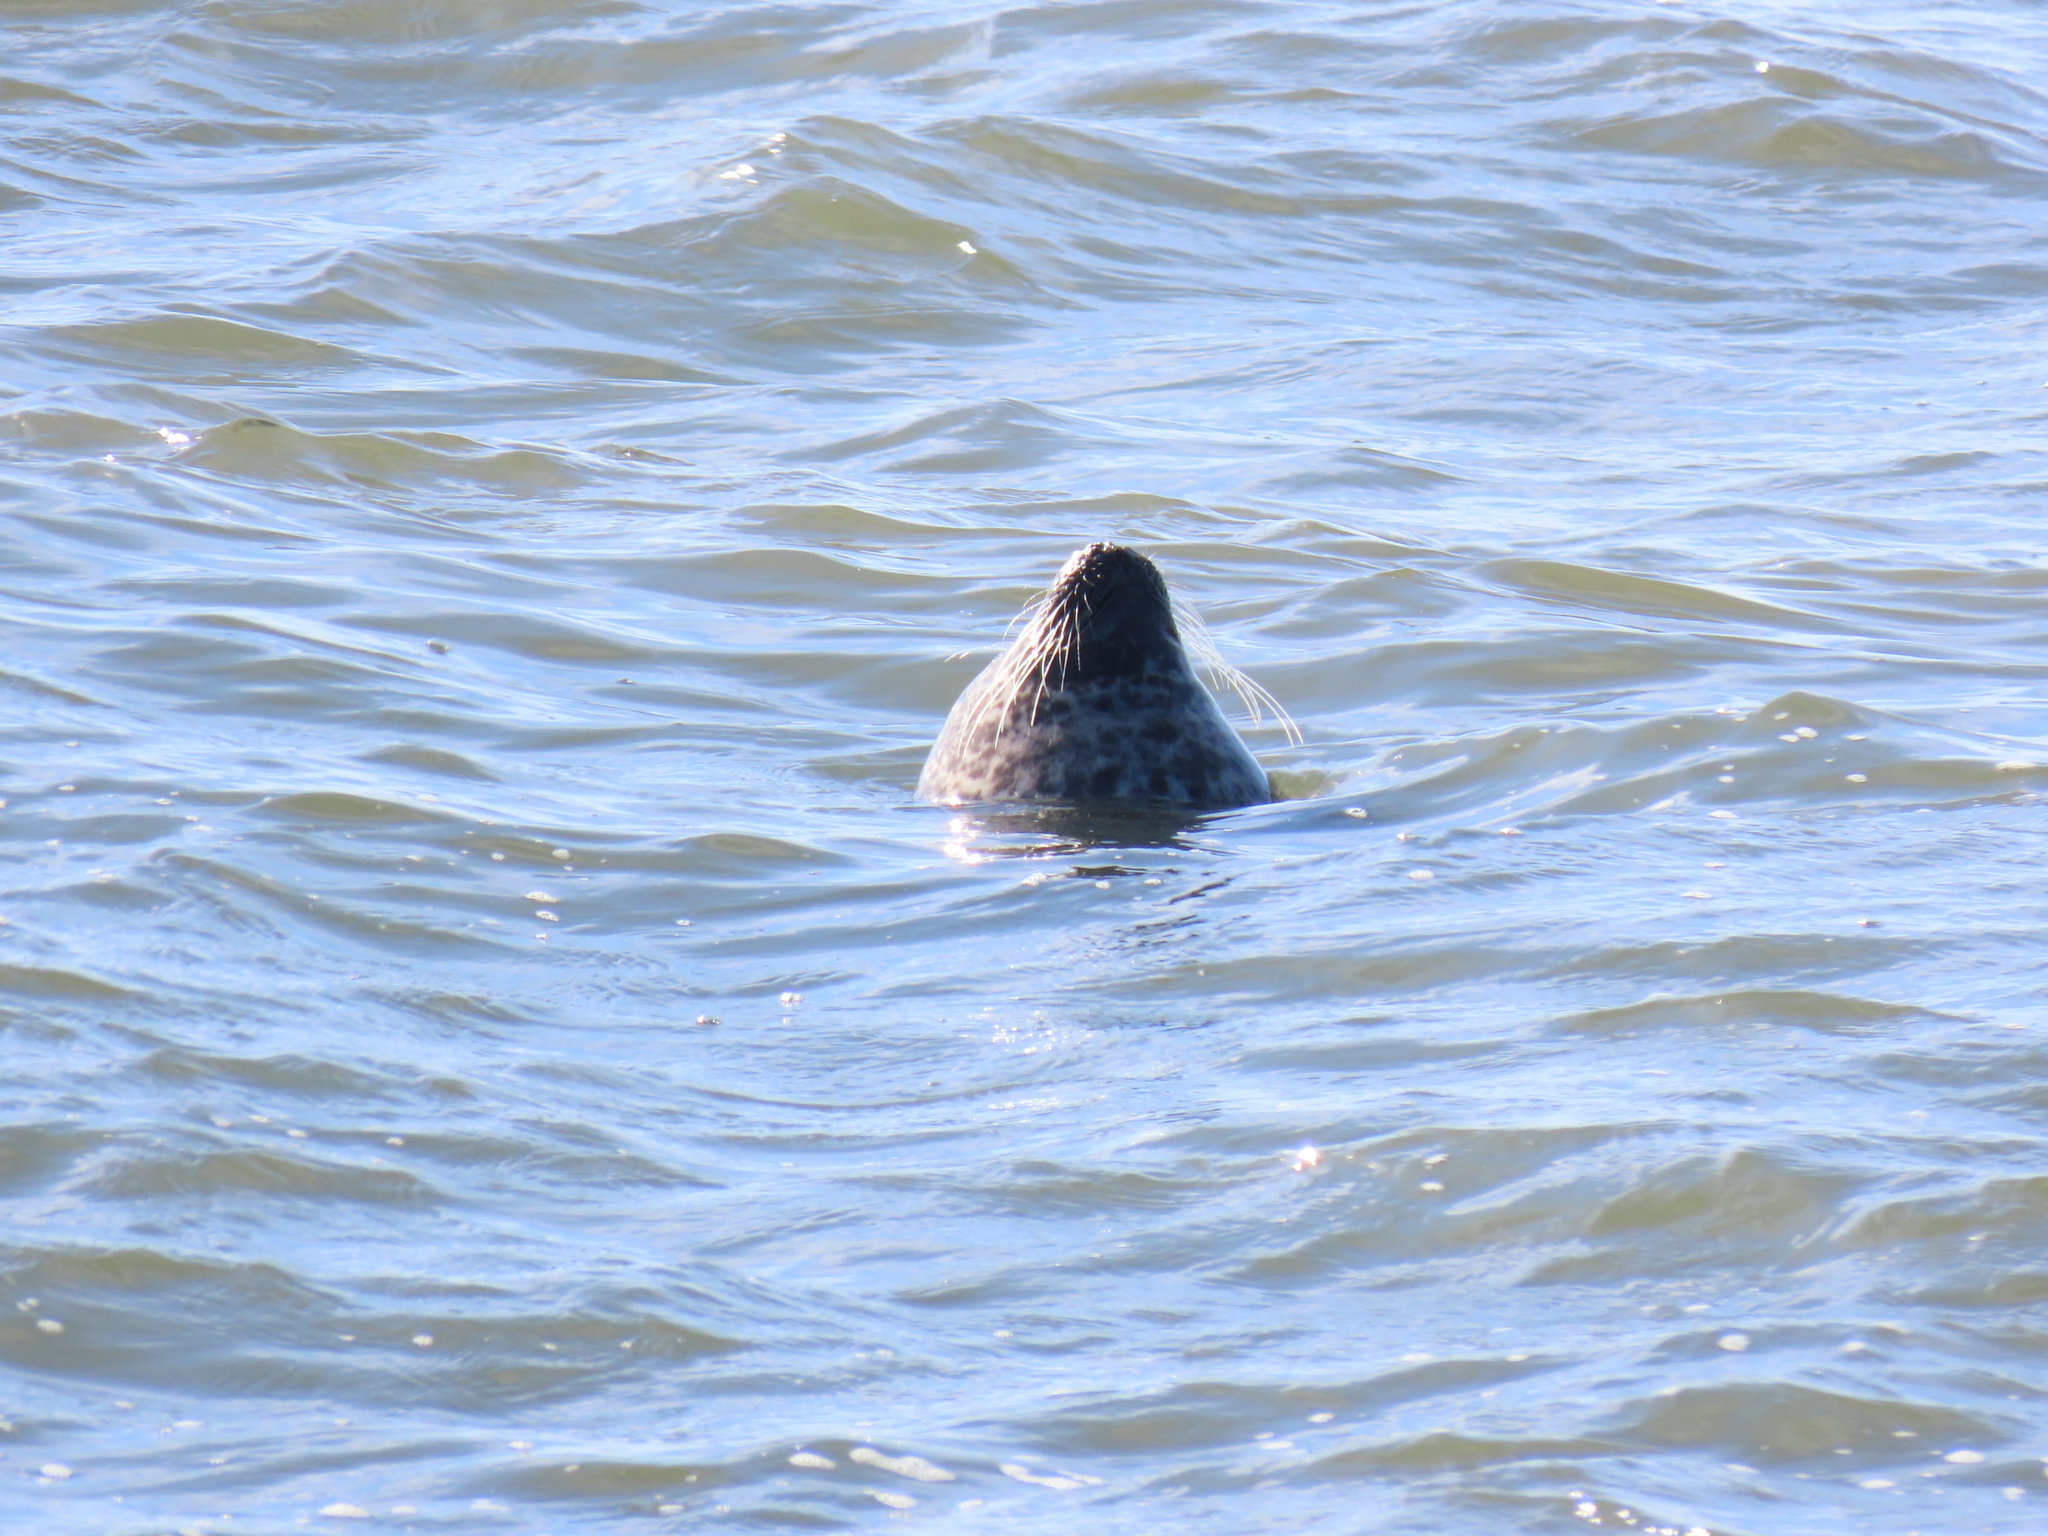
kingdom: Animalia
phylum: Chordata
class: Mammalia
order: Carnivora
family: Phocidae
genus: Phoca
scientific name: Phoca vitulina
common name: Harbor seal
